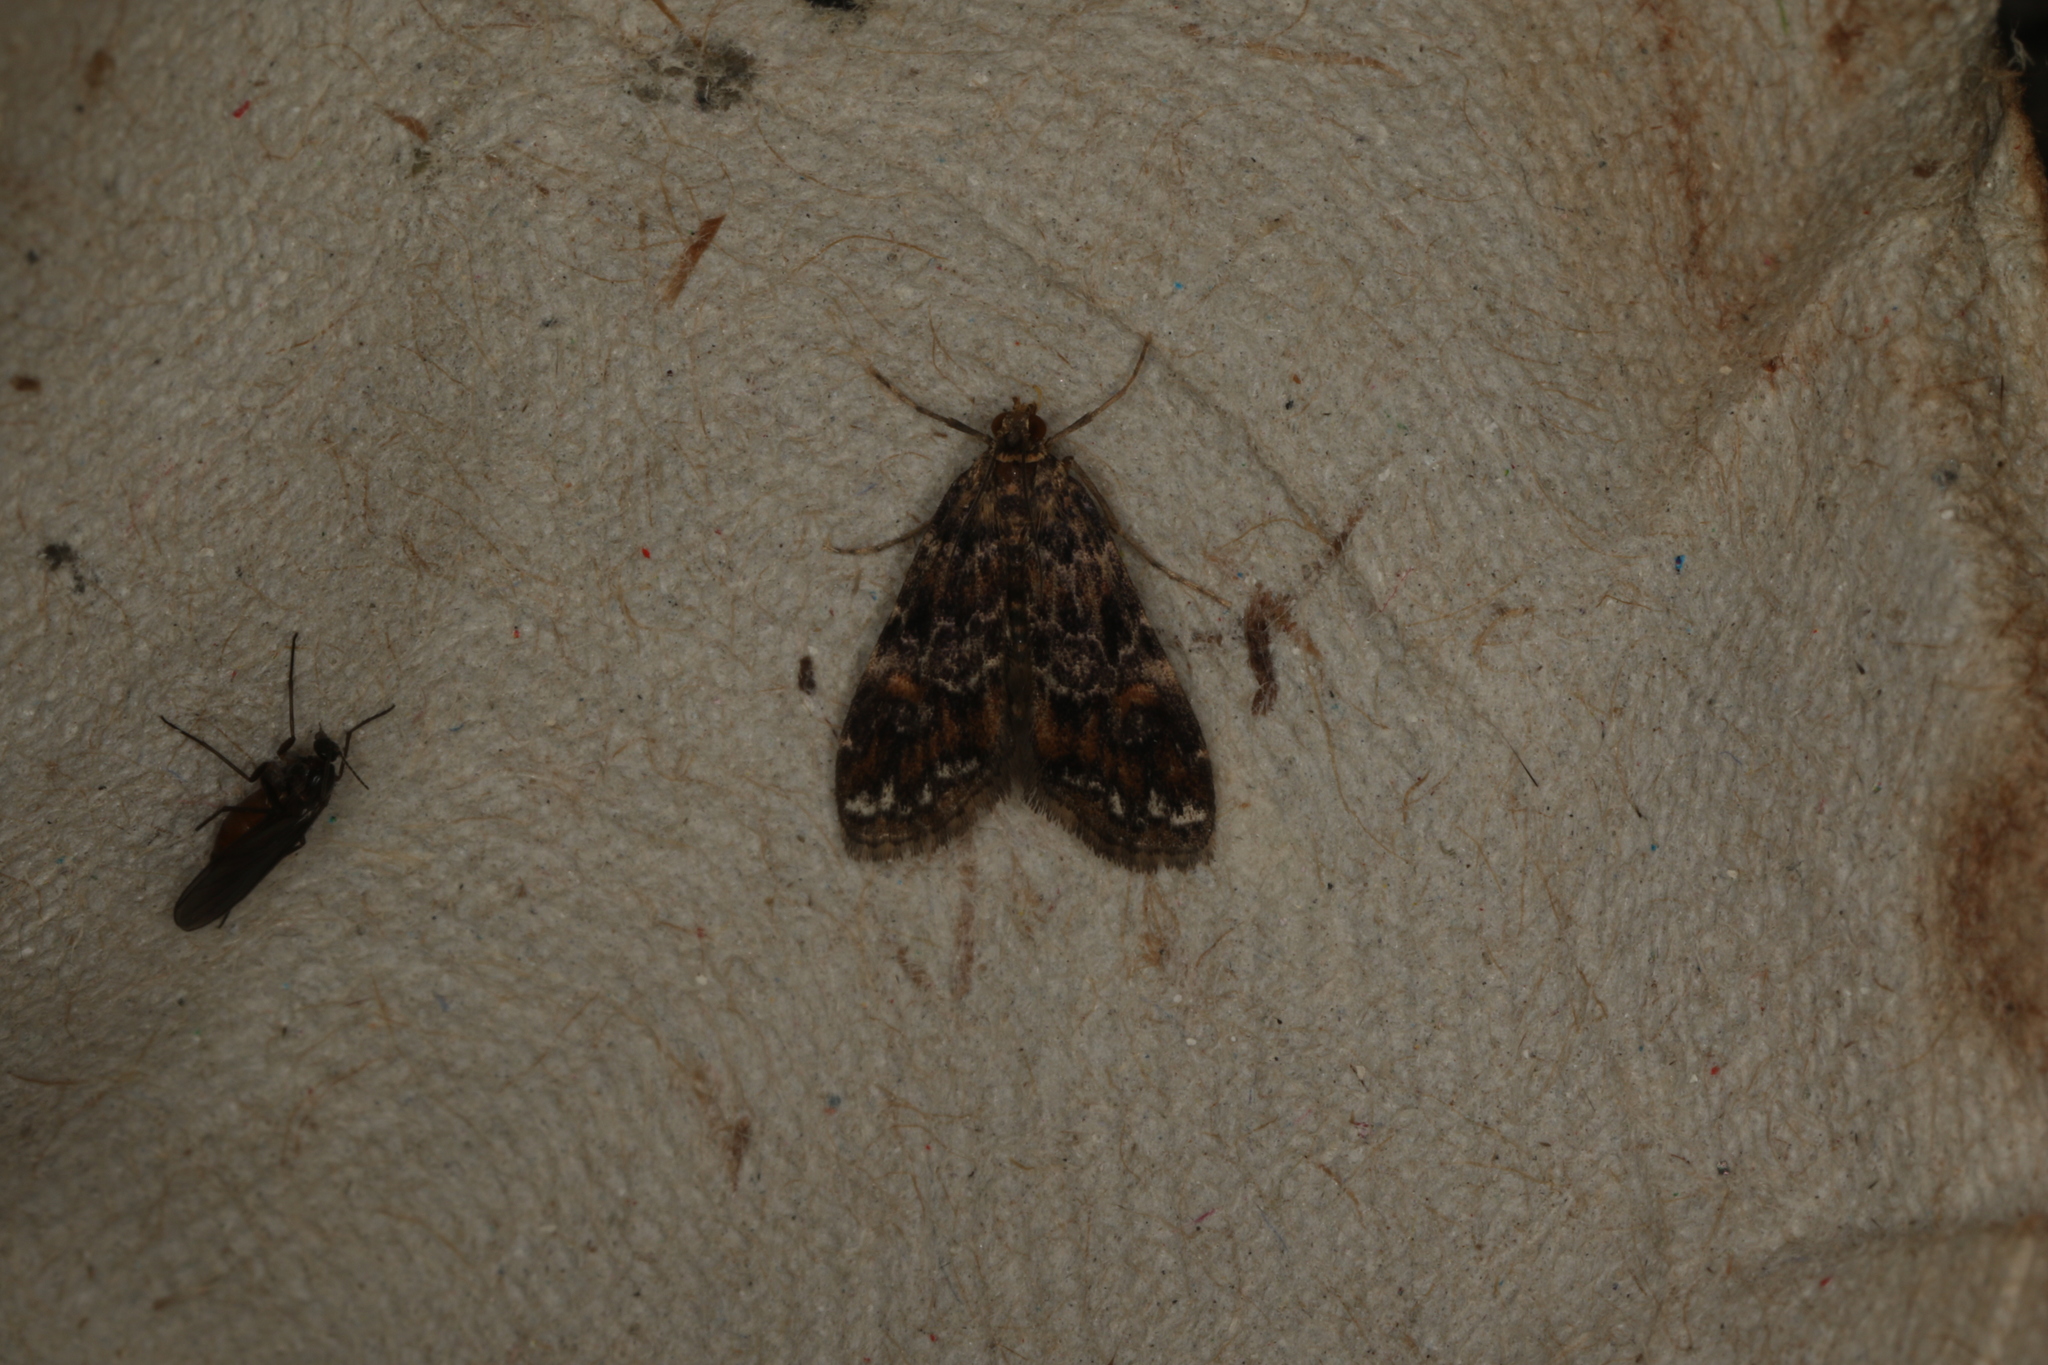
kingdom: Animalia
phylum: Arthropoda
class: Insecta
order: Lepidoptera
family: Crambidae
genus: Elophila
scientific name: Elophila responsalis
